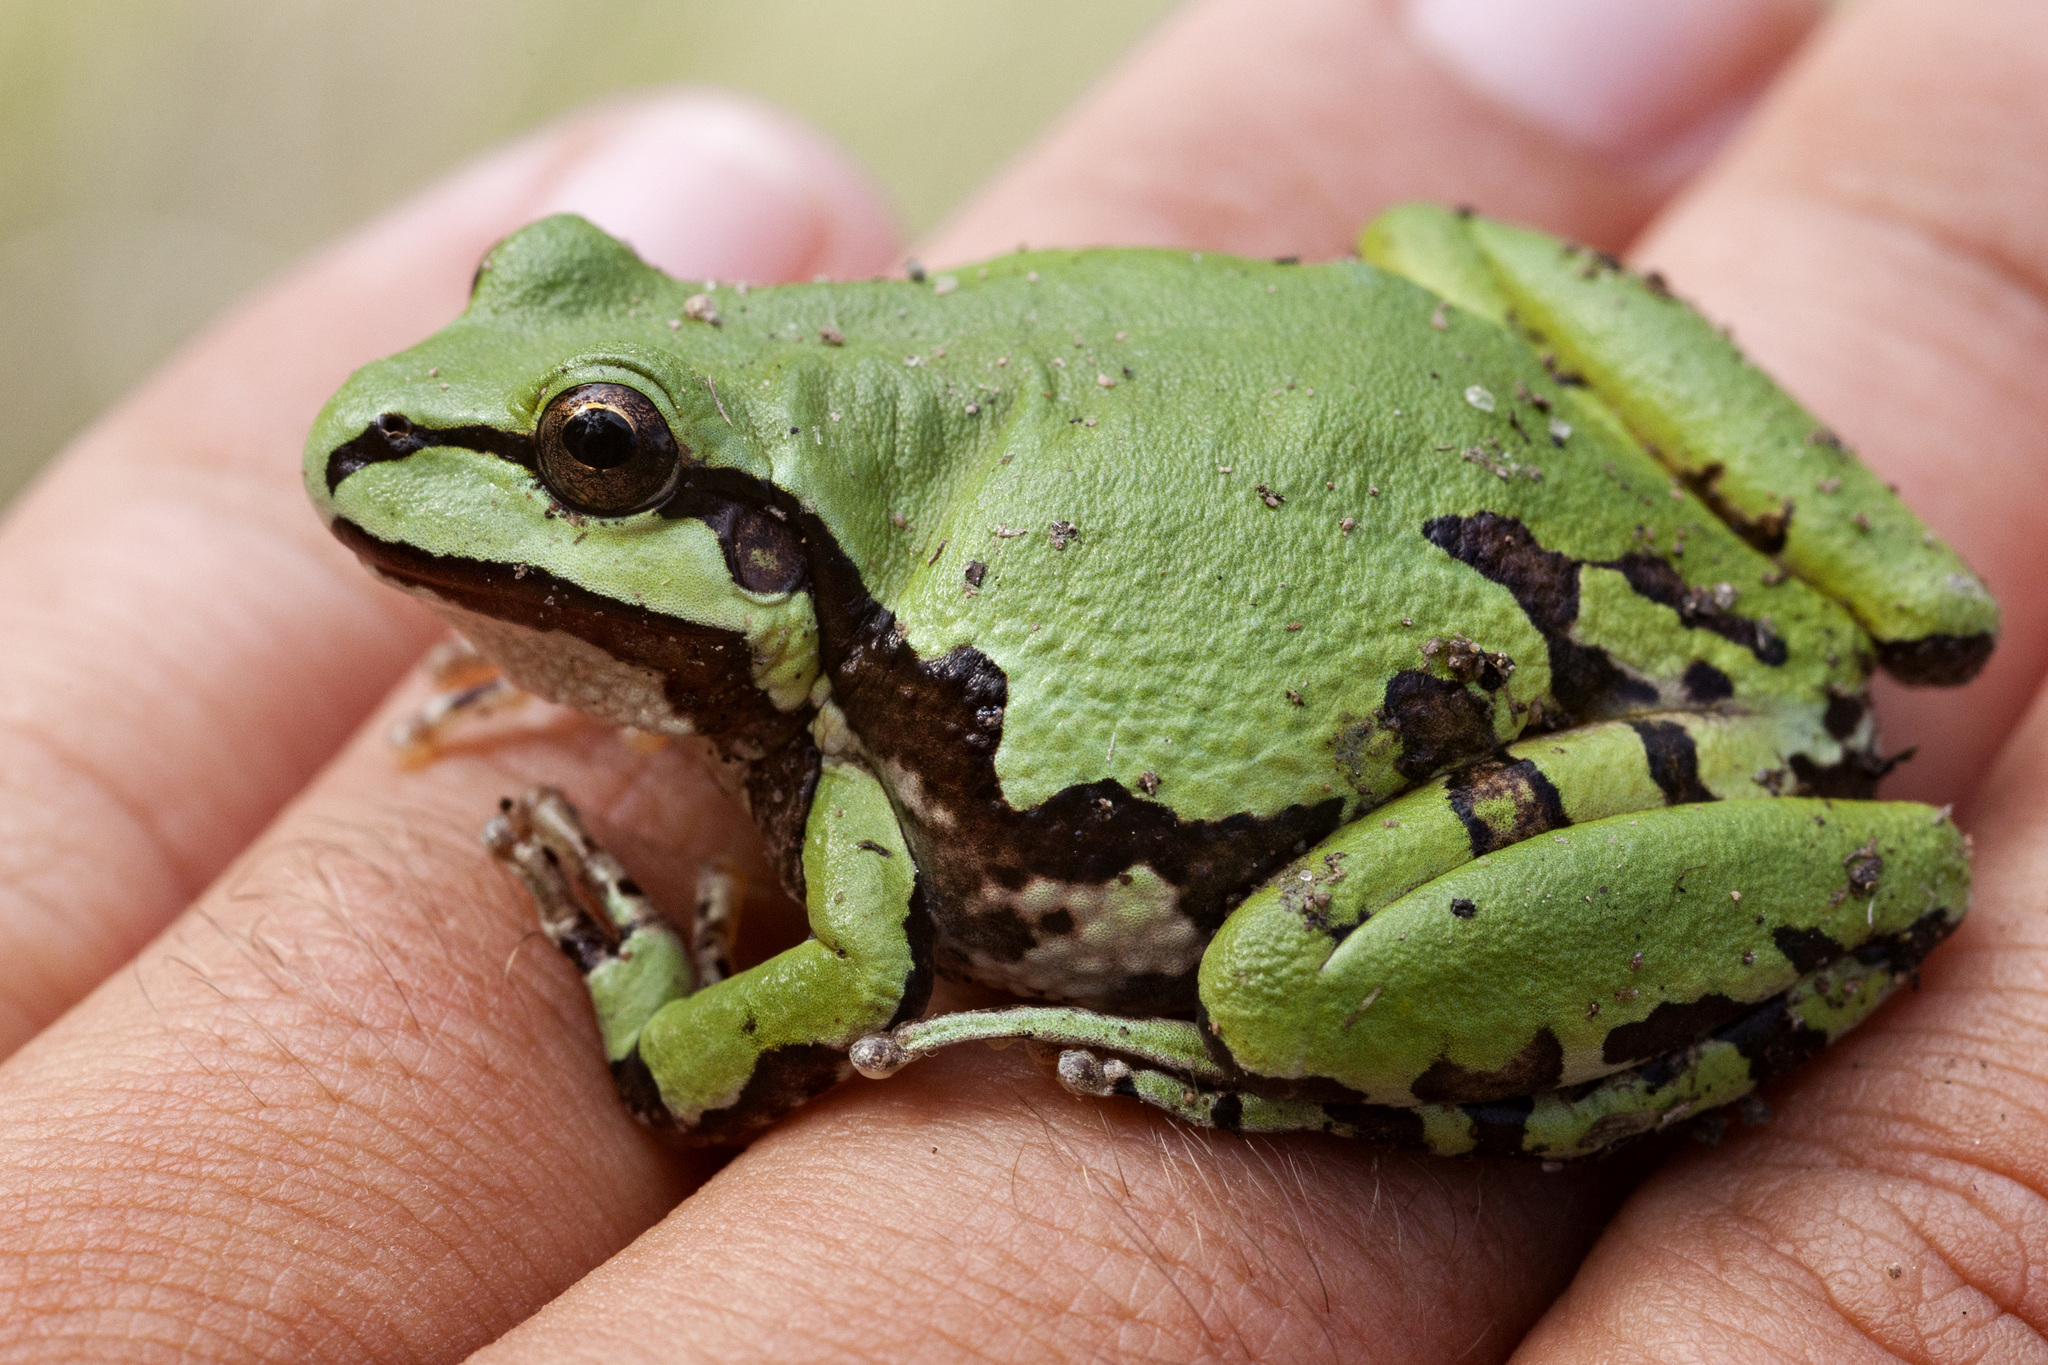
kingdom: Animalia
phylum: Chordata
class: Amphibia
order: Anura
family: Hylidae
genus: Dryophytes
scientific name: Dryophytes wrightorum
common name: Arizona treefrog
